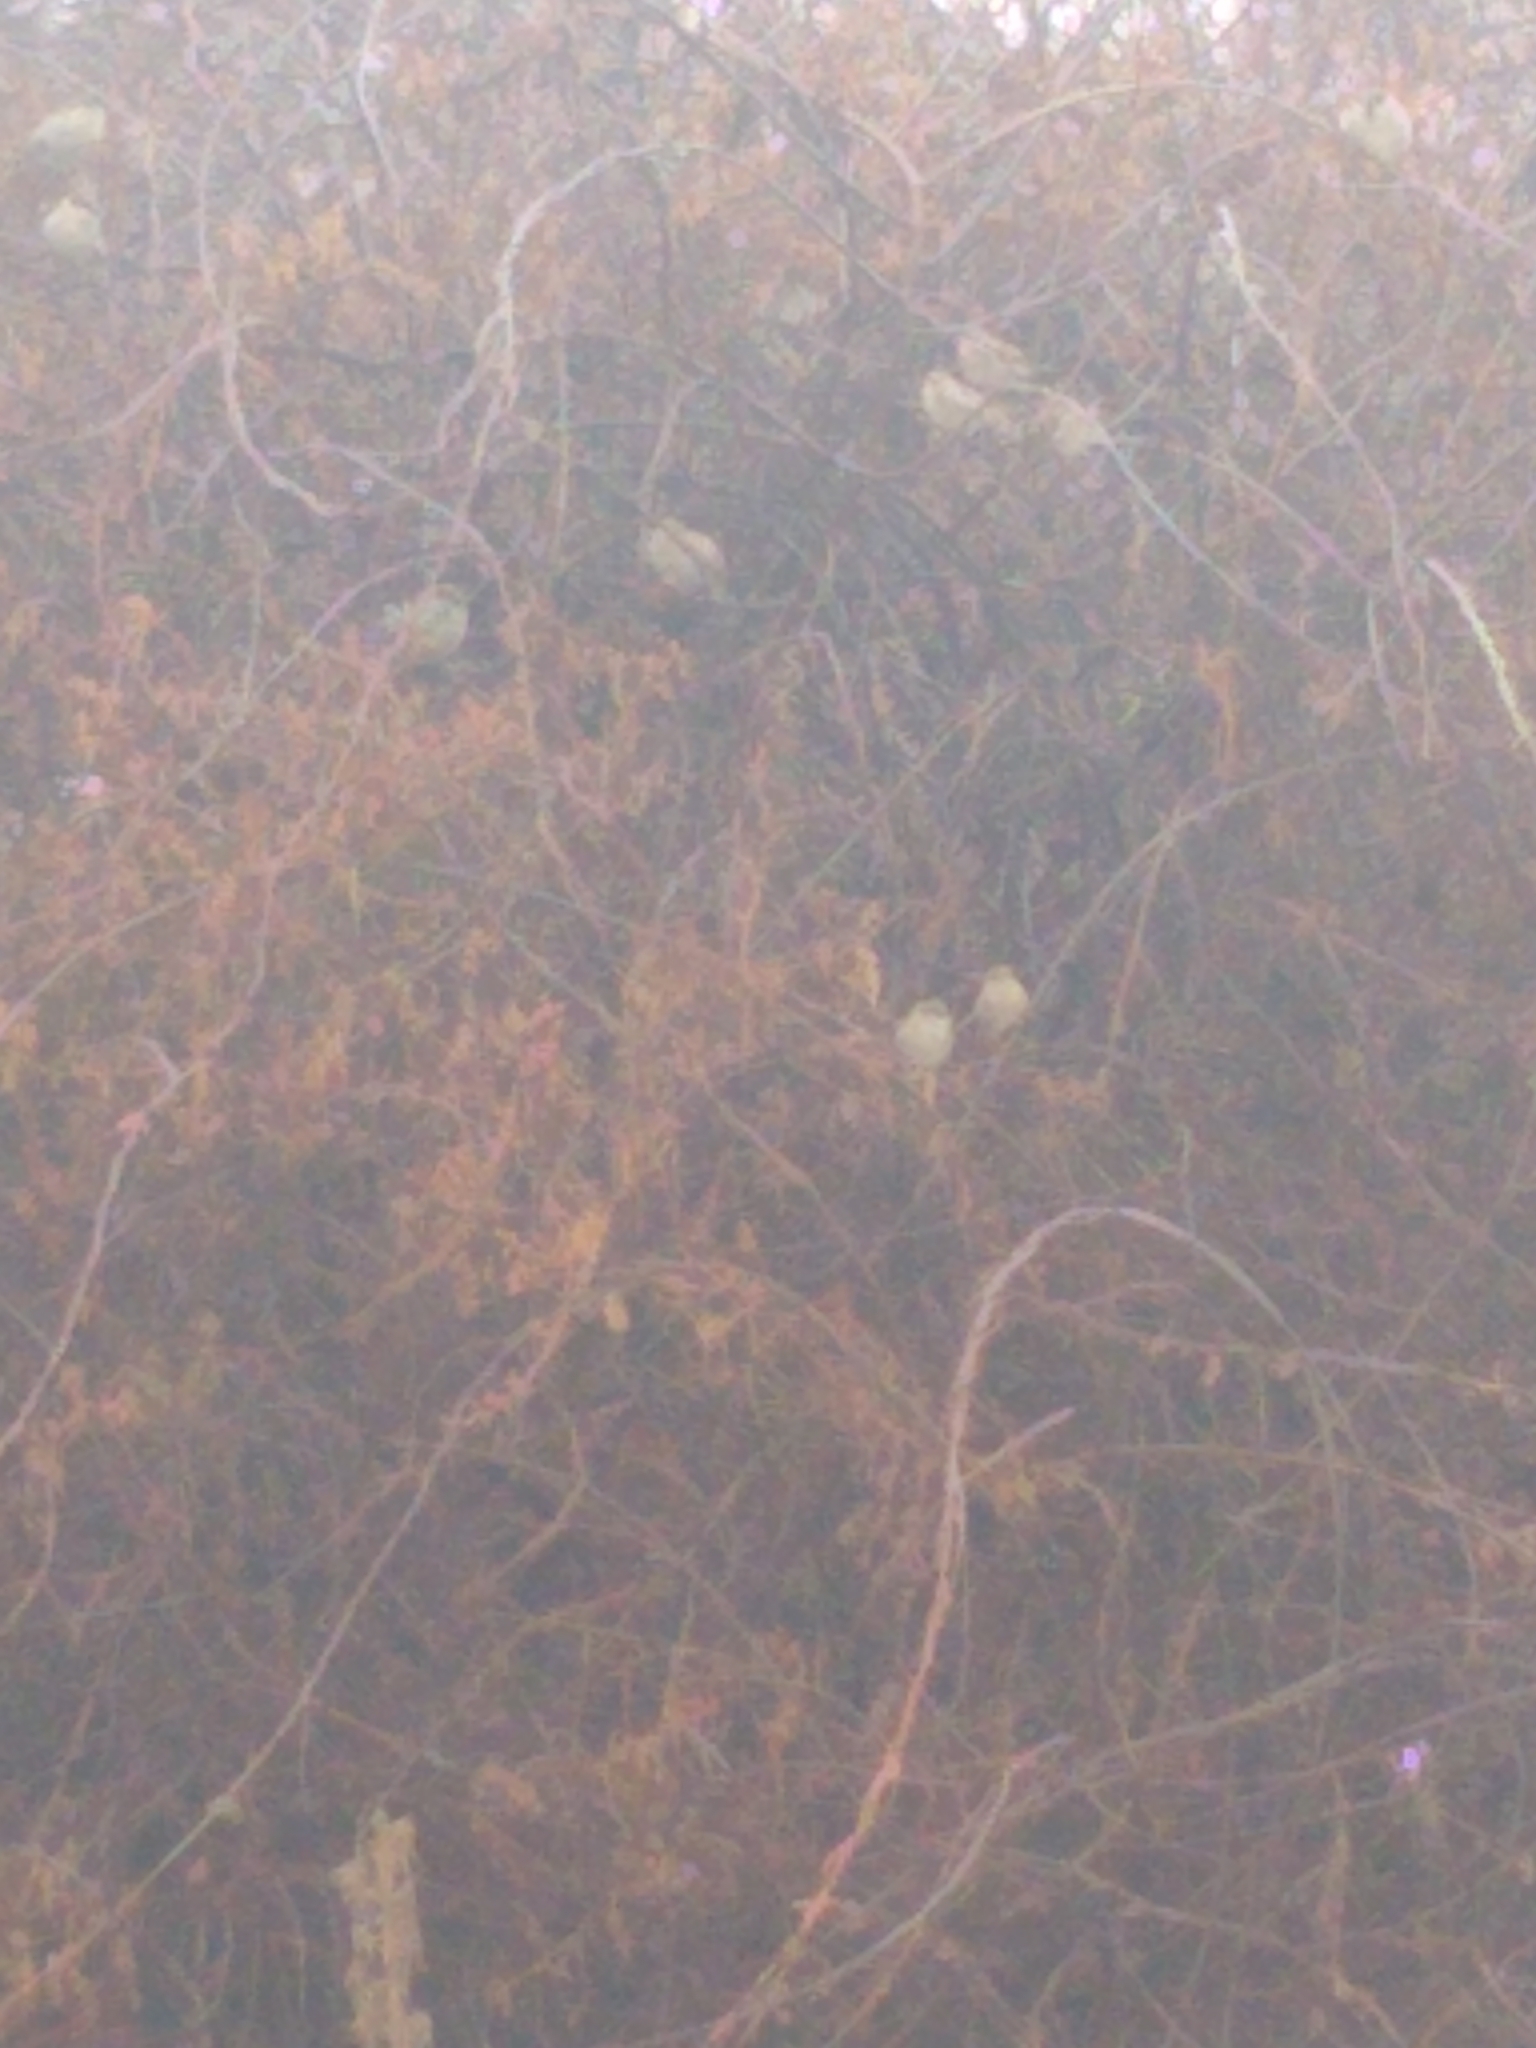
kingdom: Animalia
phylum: Chordata
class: Aves
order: Passeriformes
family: Passeridae
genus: Passer
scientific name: Passer domesticus
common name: House sparrow
